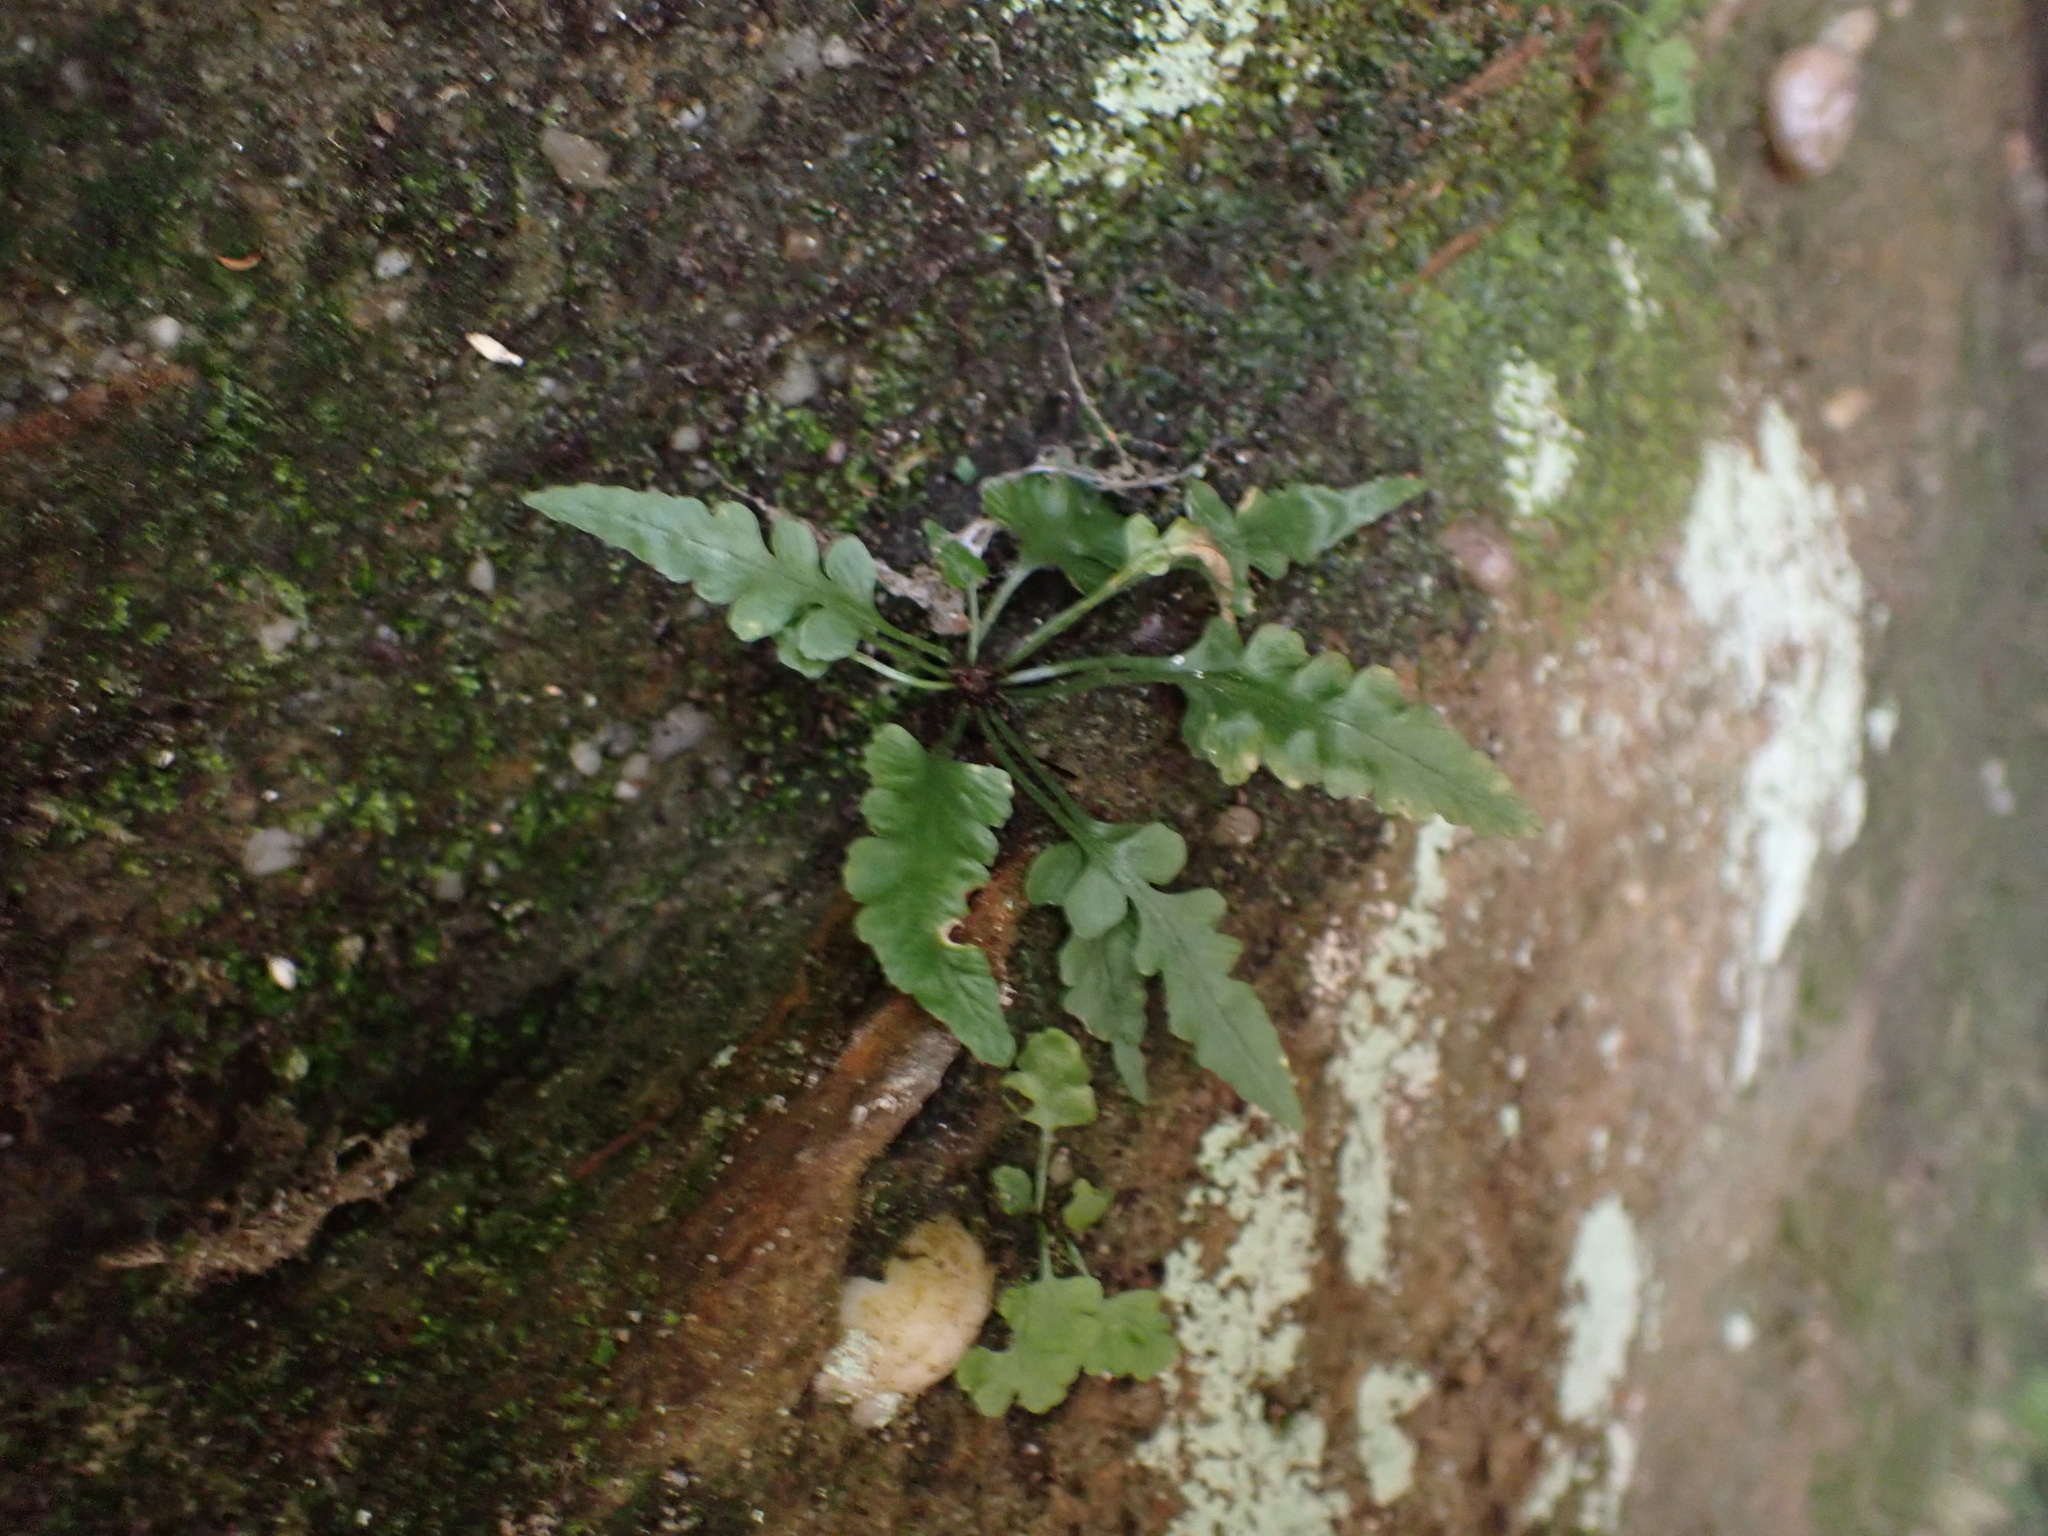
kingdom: Plantae
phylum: Tracheophyta
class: Polypodiopsida
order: Polypodiales
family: Aspleniaceae
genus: Asplenium
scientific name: Asplenium pinnatifidum
